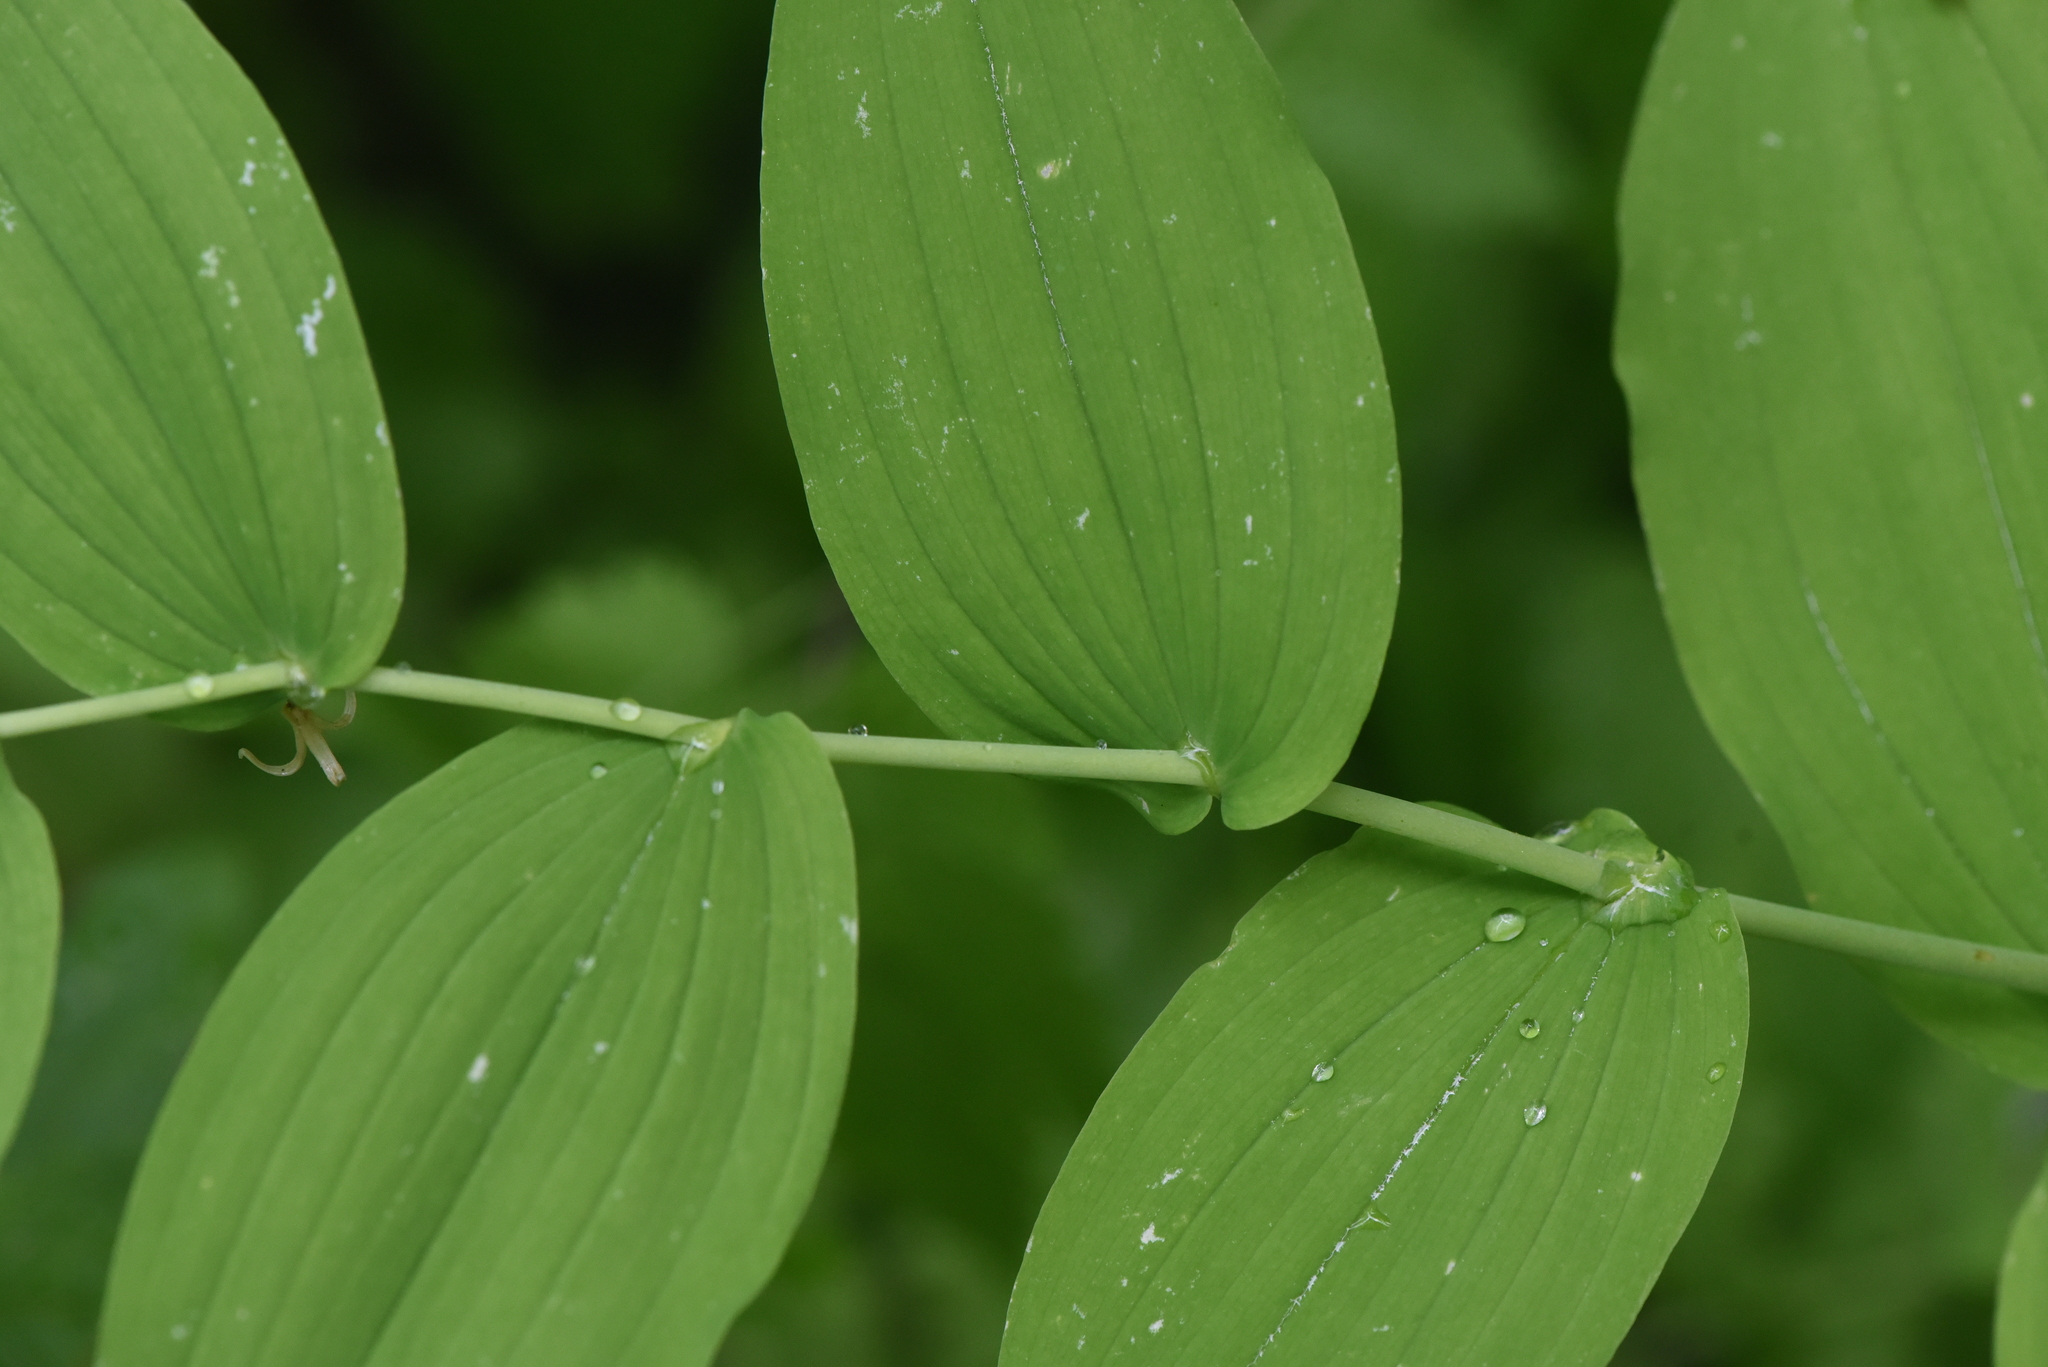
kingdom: Plantae
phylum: Tracheophyta
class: Liliopsida
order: Liliales
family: Liliaceae
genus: Streptopus
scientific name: Streptopus amplexifolius
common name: Clasp twisted stalk
